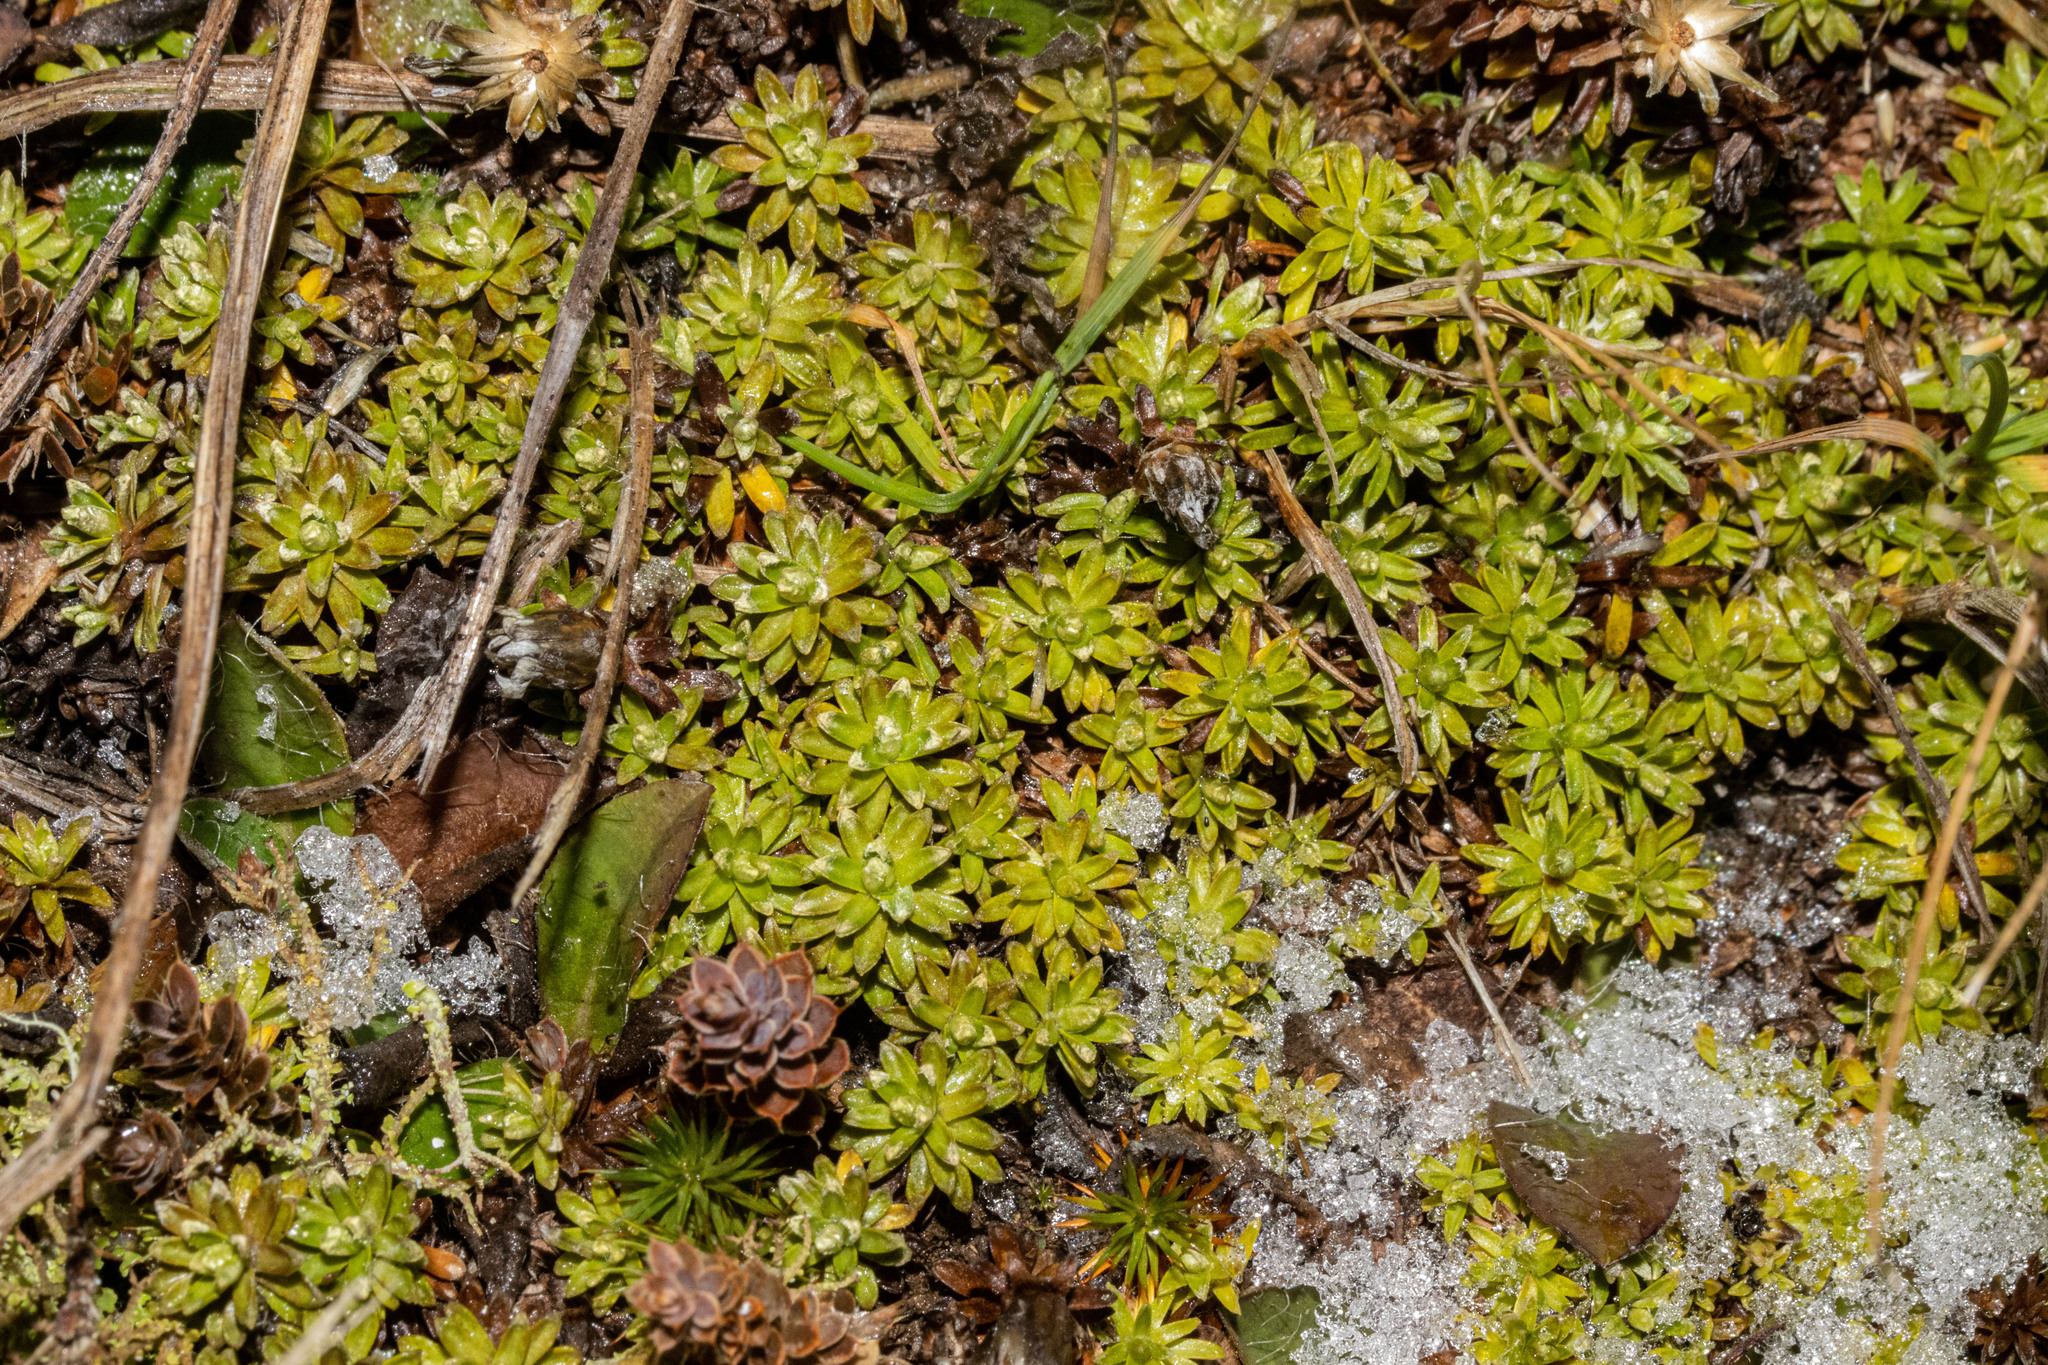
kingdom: Plantae
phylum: Tracheophyta
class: Magnoliopsida
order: Asterales
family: Asteraceae
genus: Raoulia
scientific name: Raoulia subsericea
